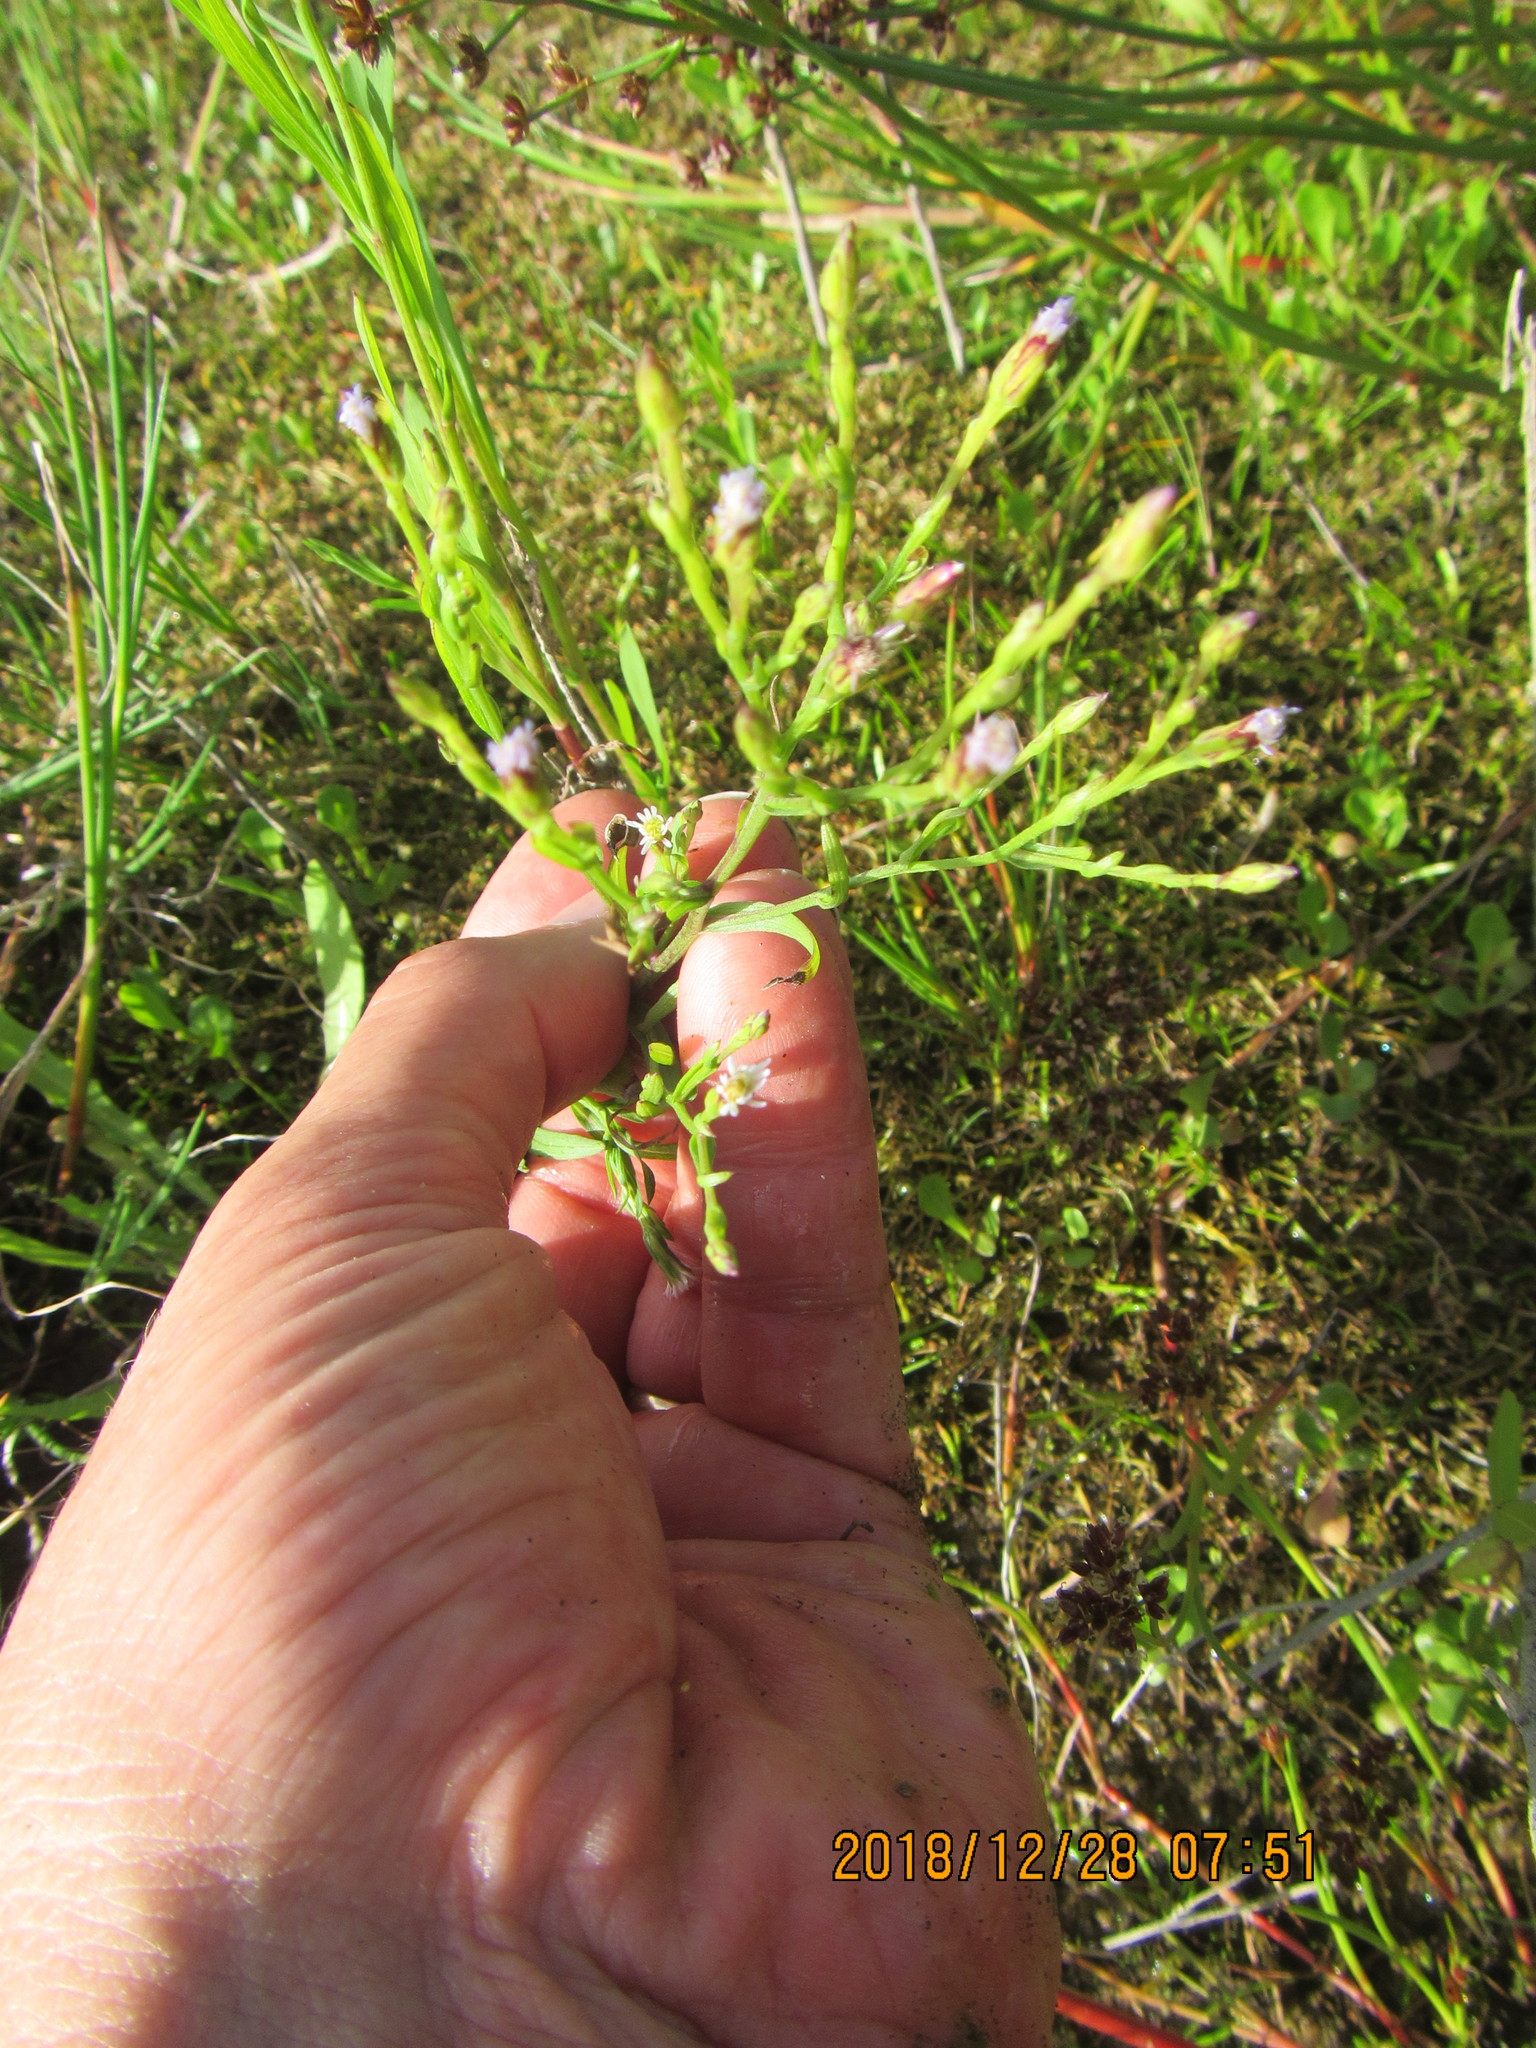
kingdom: Plantae
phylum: Tracheophyta
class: Magnoliopsida
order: Asterales
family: Asteraceae
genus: Symphyotrichum
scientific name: Symphyotrichum subulatum
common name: Annual saltmarsh aster
